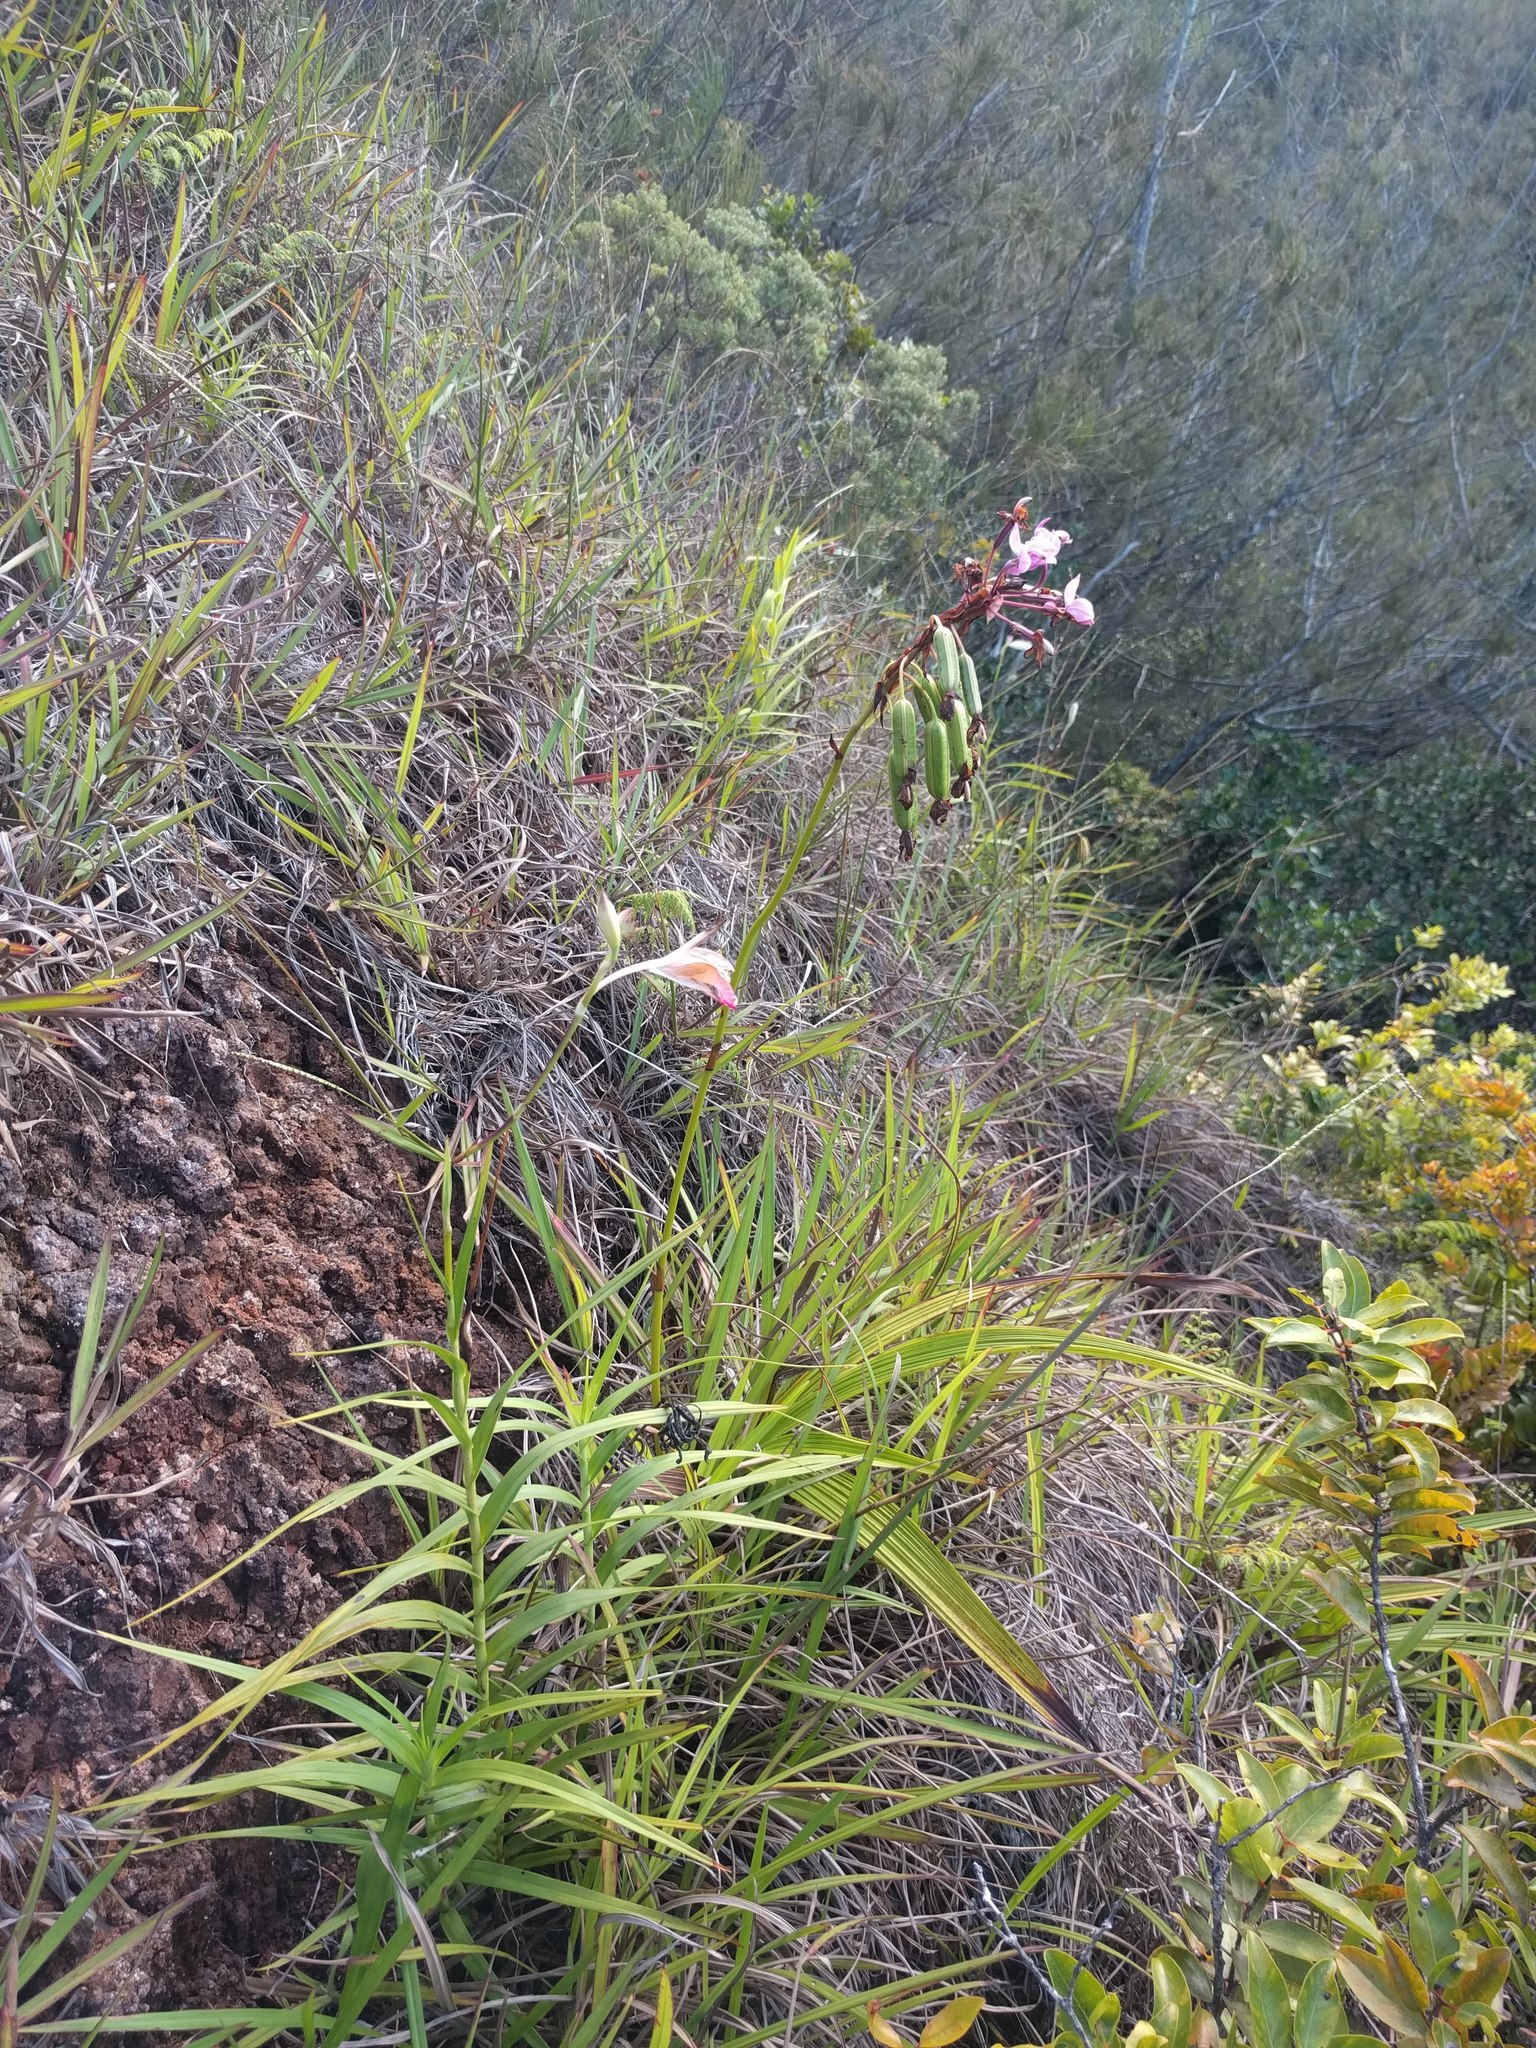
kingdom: Plantae
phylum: Tracheophyta
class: Liliopsida
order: Asparagales
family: Orchidaceae
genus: Spathoglottis
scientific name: Spathoglottis plicata
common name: Philippine ground orchid
